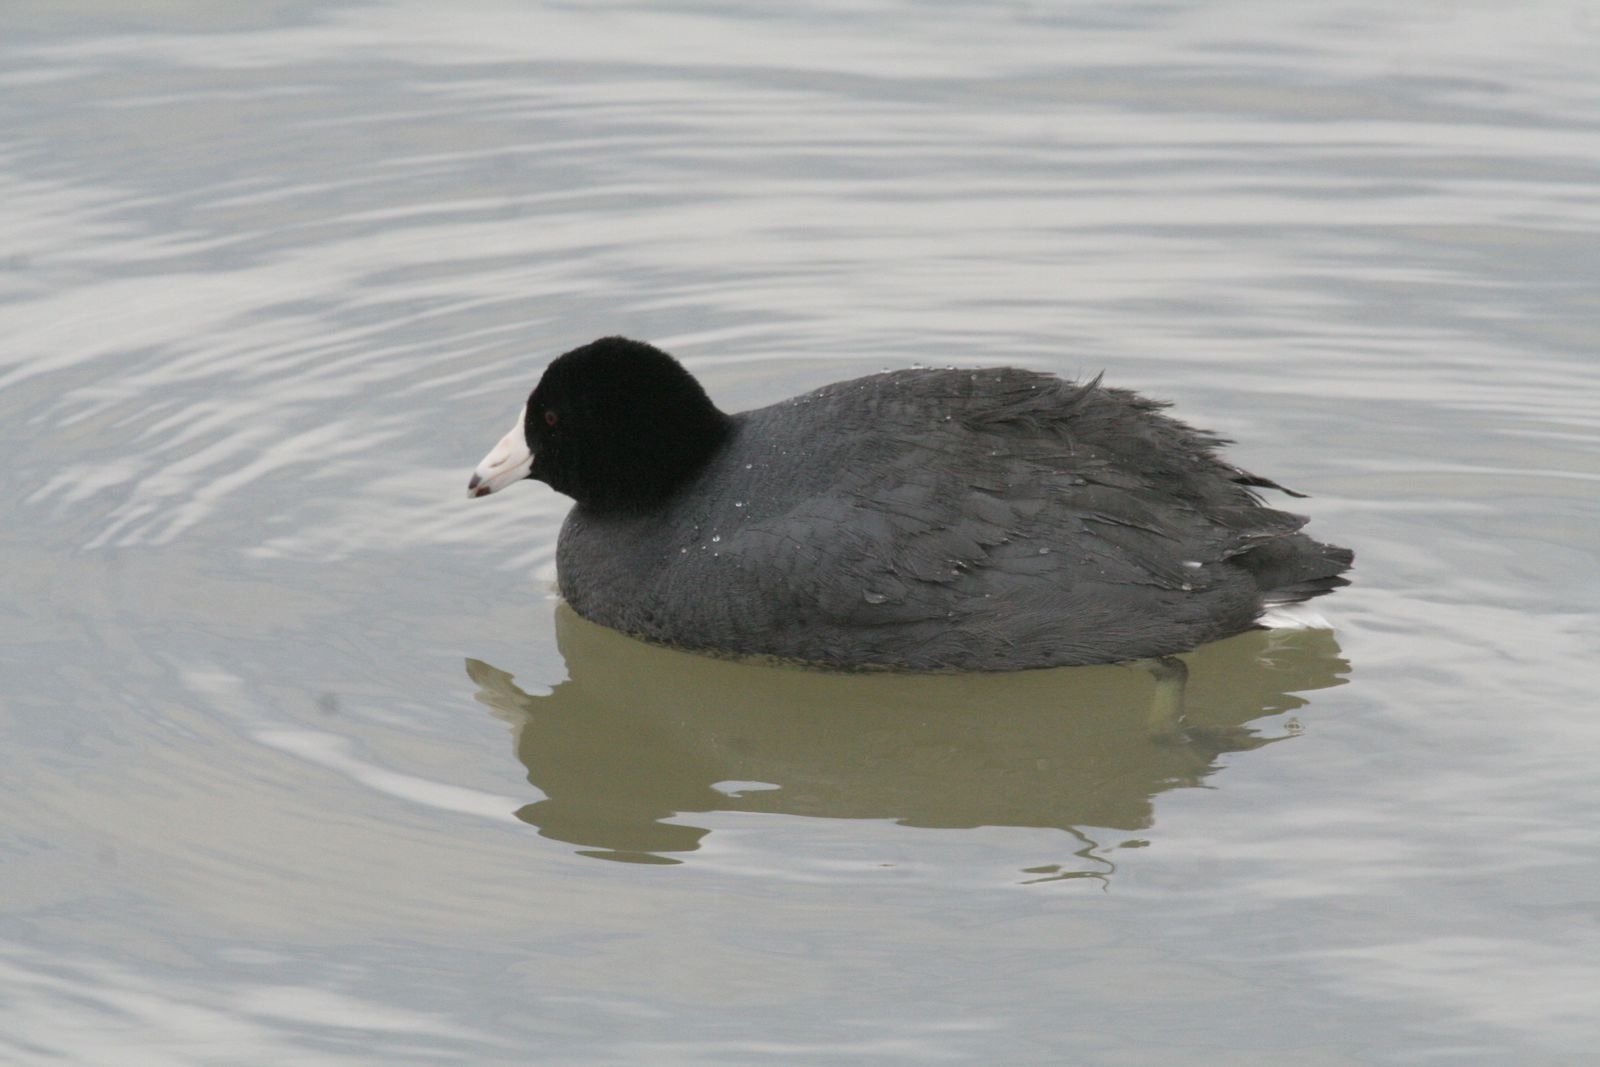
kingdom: Animalia
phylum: Chordata
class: Aves
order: Gruiformes
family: Rallidae
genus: Fulica
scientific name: Fulica americana
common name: American coot
